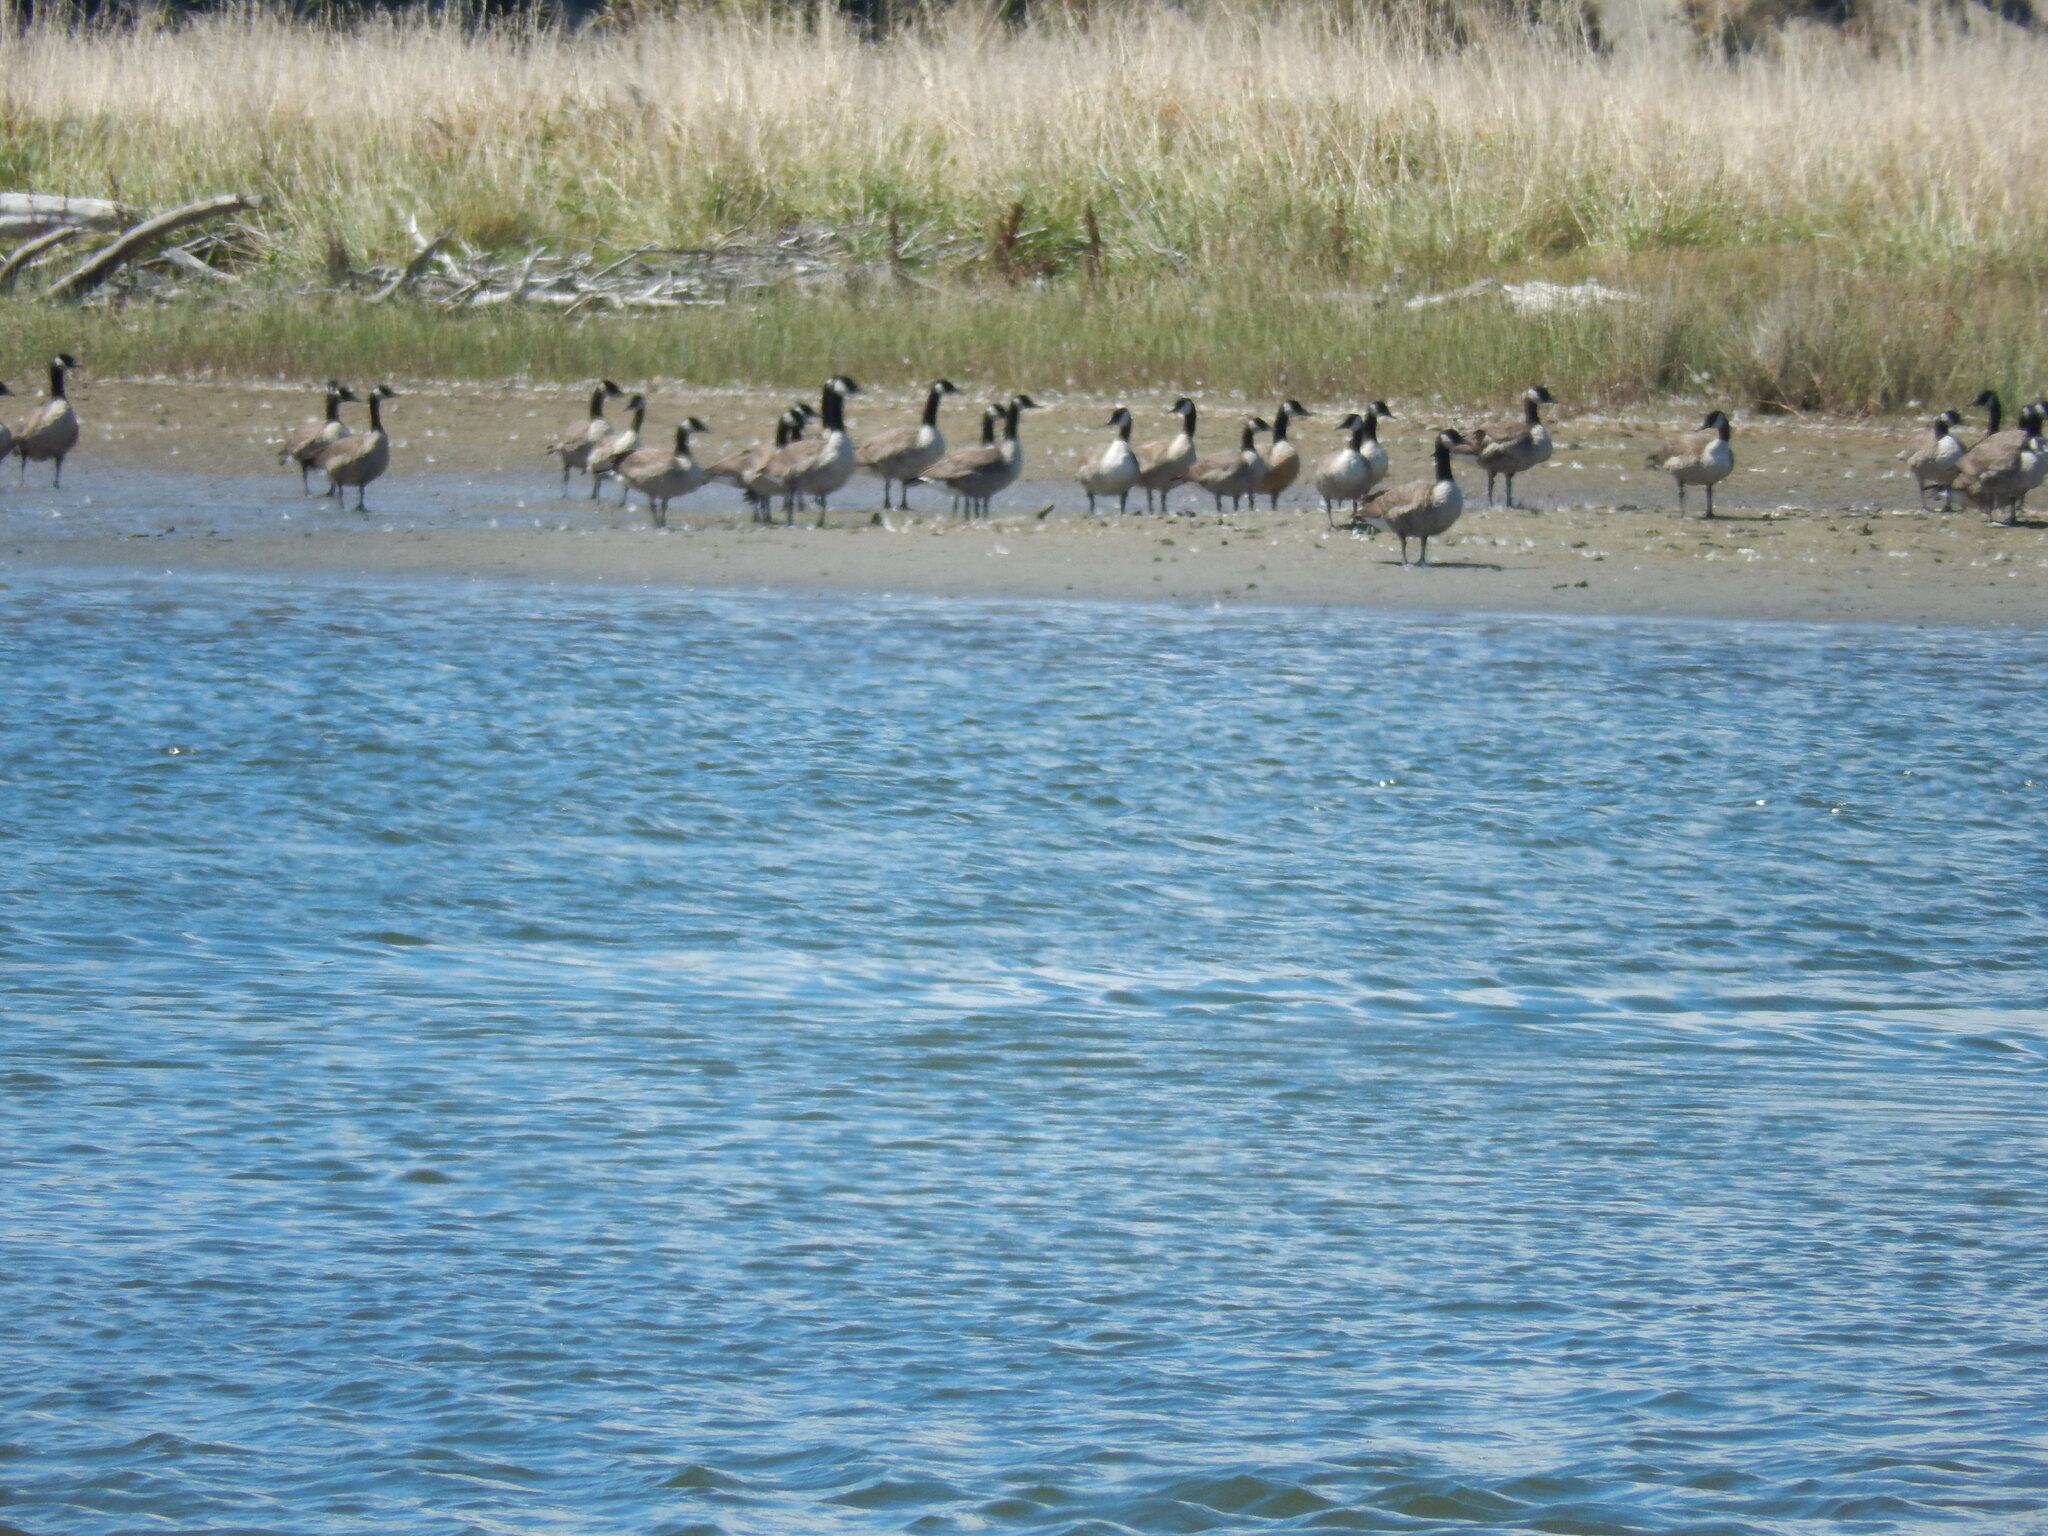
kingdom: Animalia
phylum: Chordata
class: Aves
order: Anseriformes
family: Anatidae
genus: Branta
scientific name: Branta canadensis
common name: Canada goose
